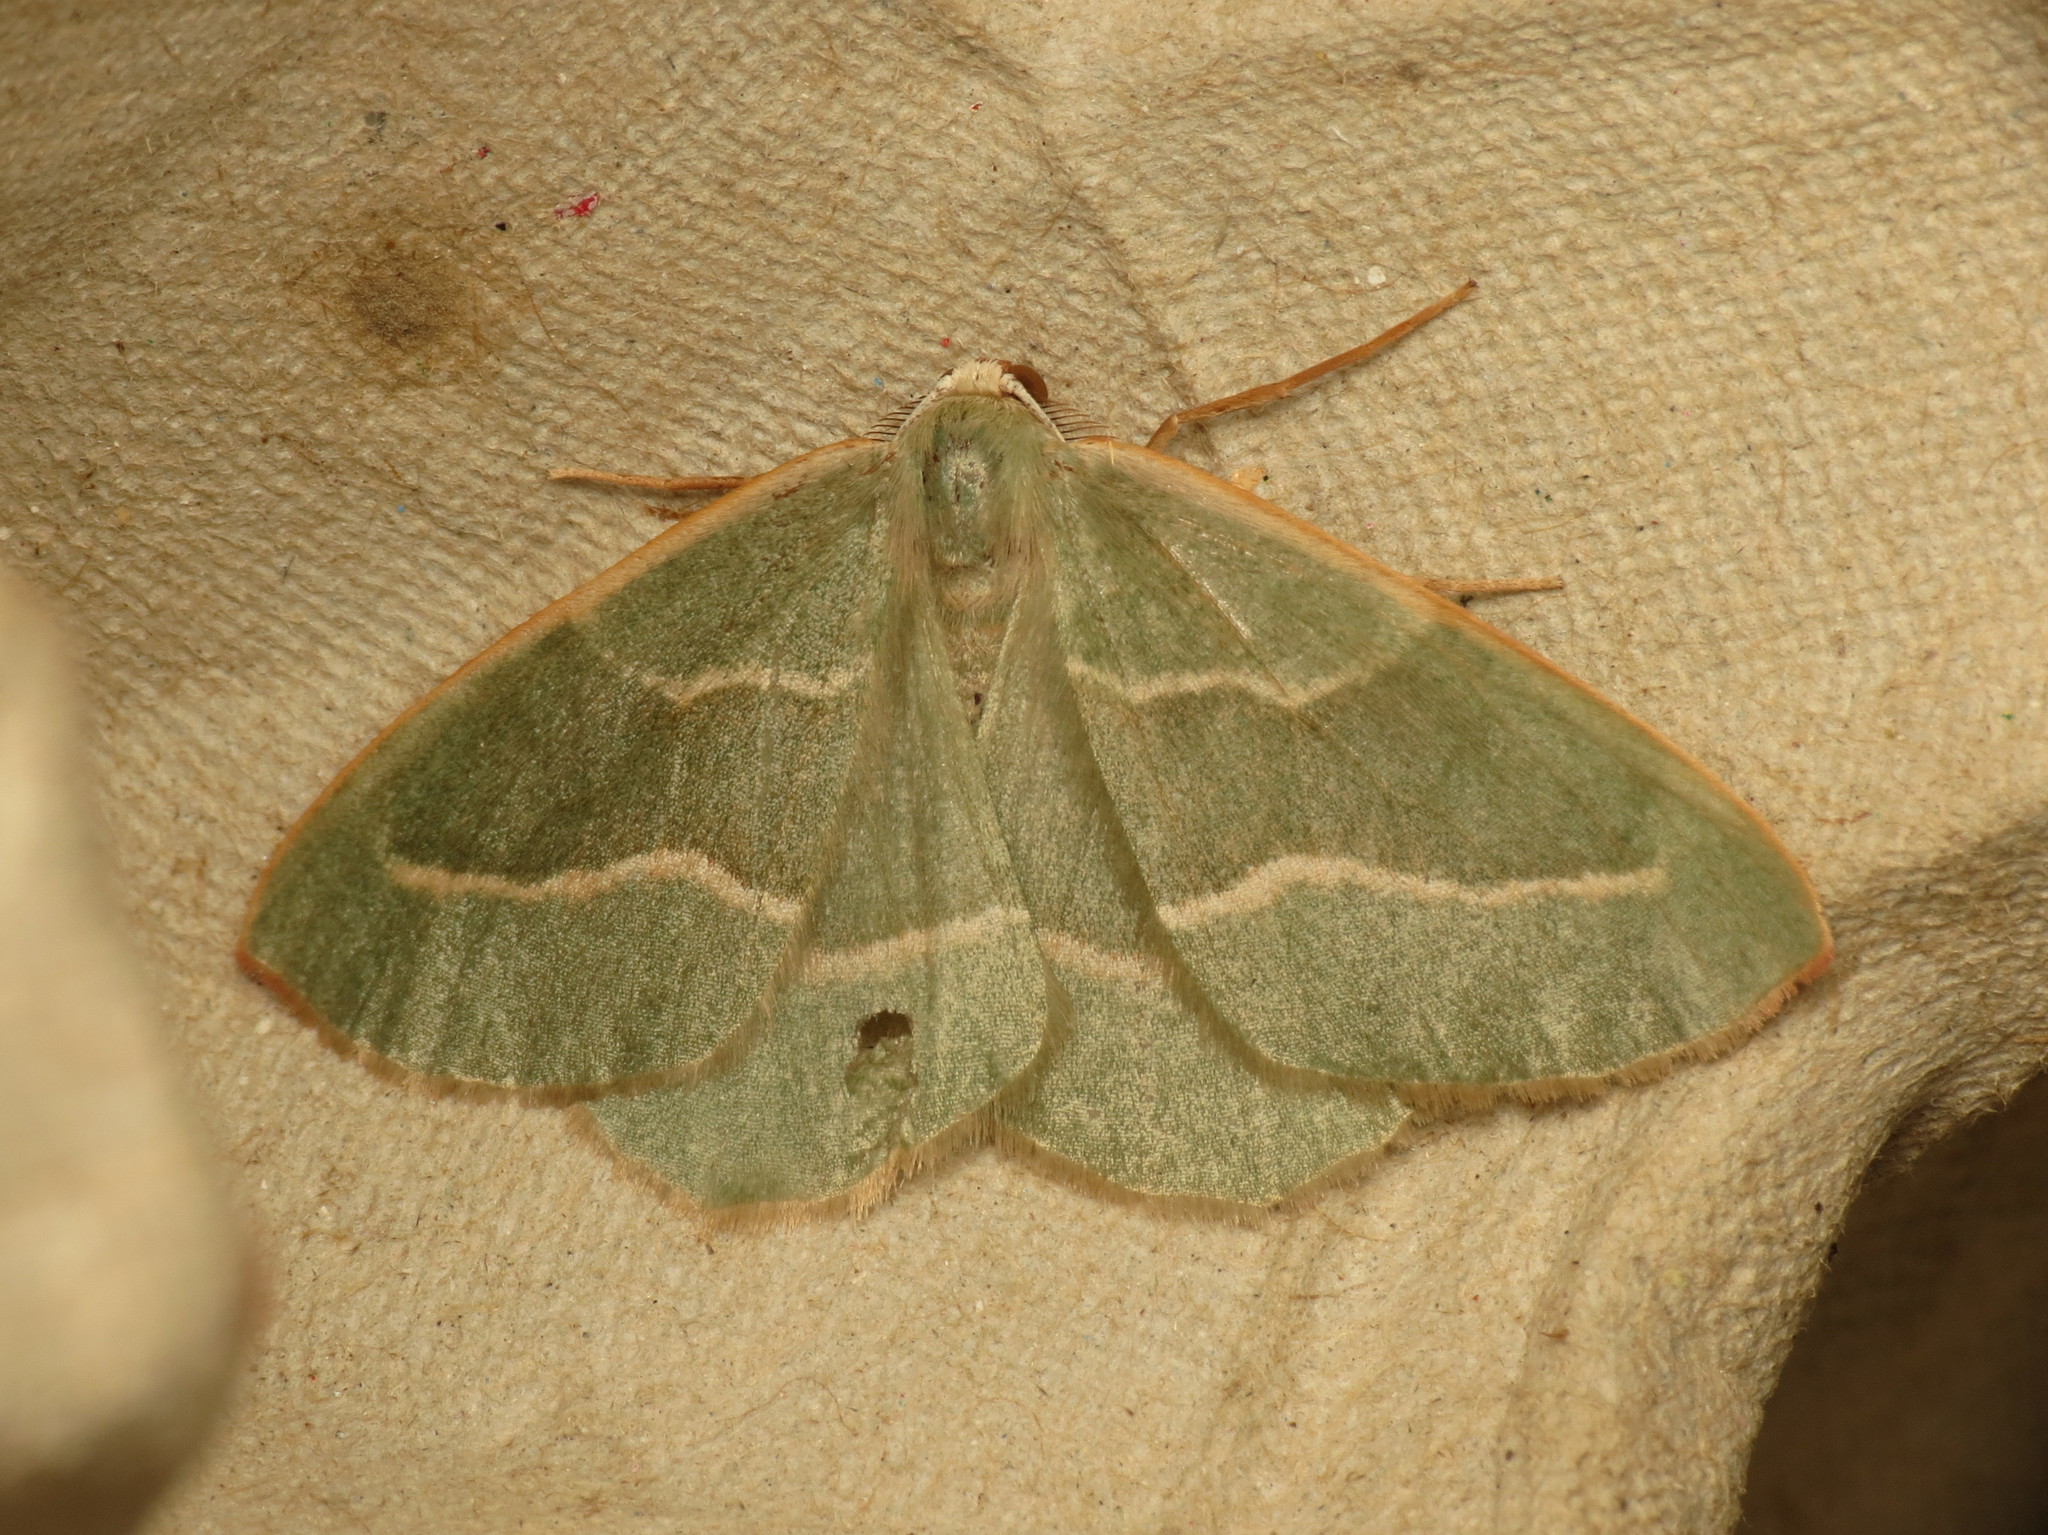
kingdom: Animalia
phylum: Arthropoda
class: Insecta
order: Lepidoptera
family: Geometridae
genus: Hylaea
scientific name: Hylaea fasciaria
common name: Barred red
